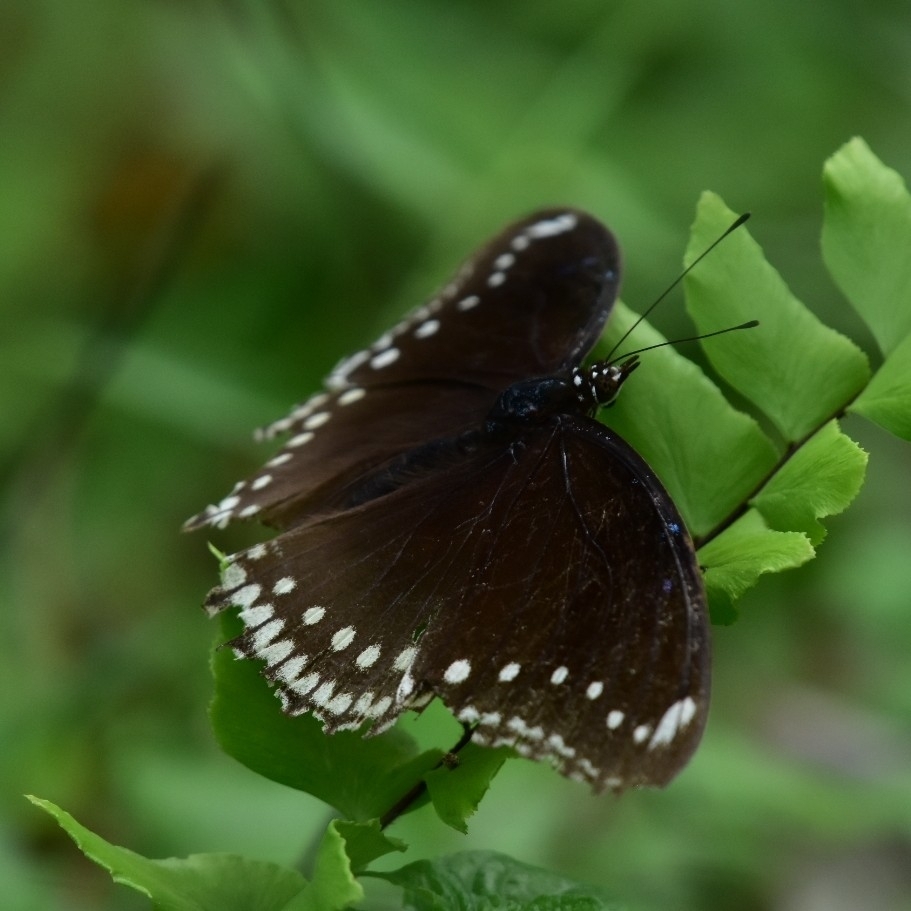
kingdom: Animalia
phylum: Arthropoda
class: Insecta
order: Lepidoptera
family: Nymphalidae
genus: Hypolimnas
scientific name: Hypolimnas bolina
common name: Great eggfly
